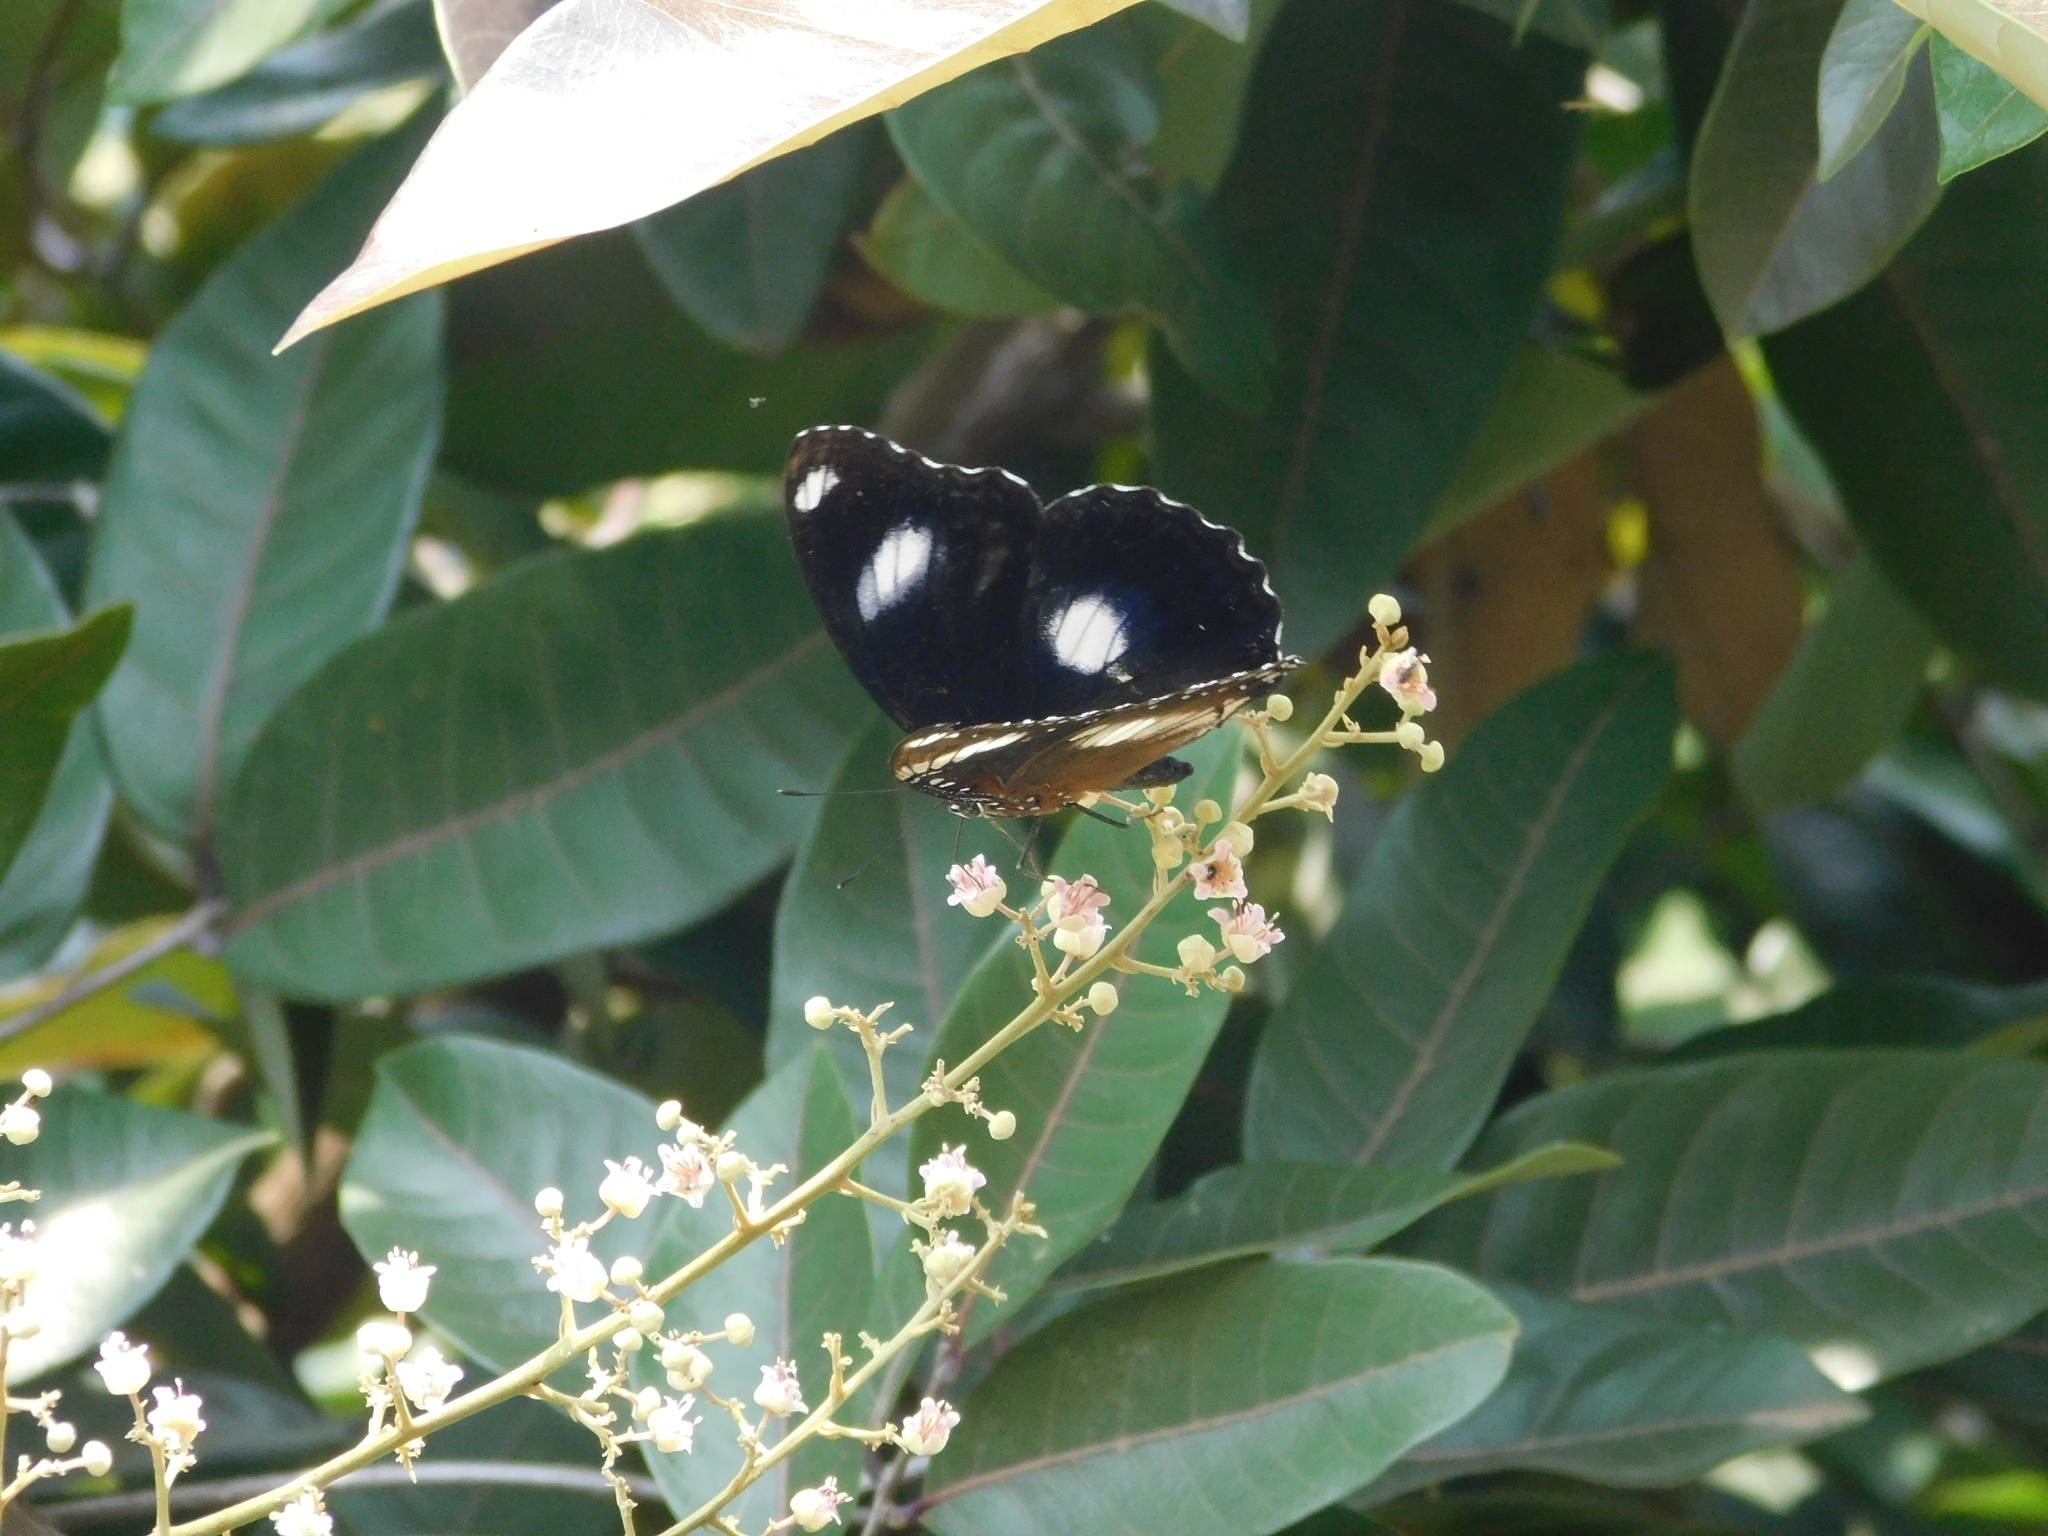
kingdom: Animalia
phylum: Arthropoda
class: Insecta
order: Lepidoptera
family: Nymphalidae
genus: Hypolimnas
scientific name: Hypolimnas bolina
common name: Great eggfly
